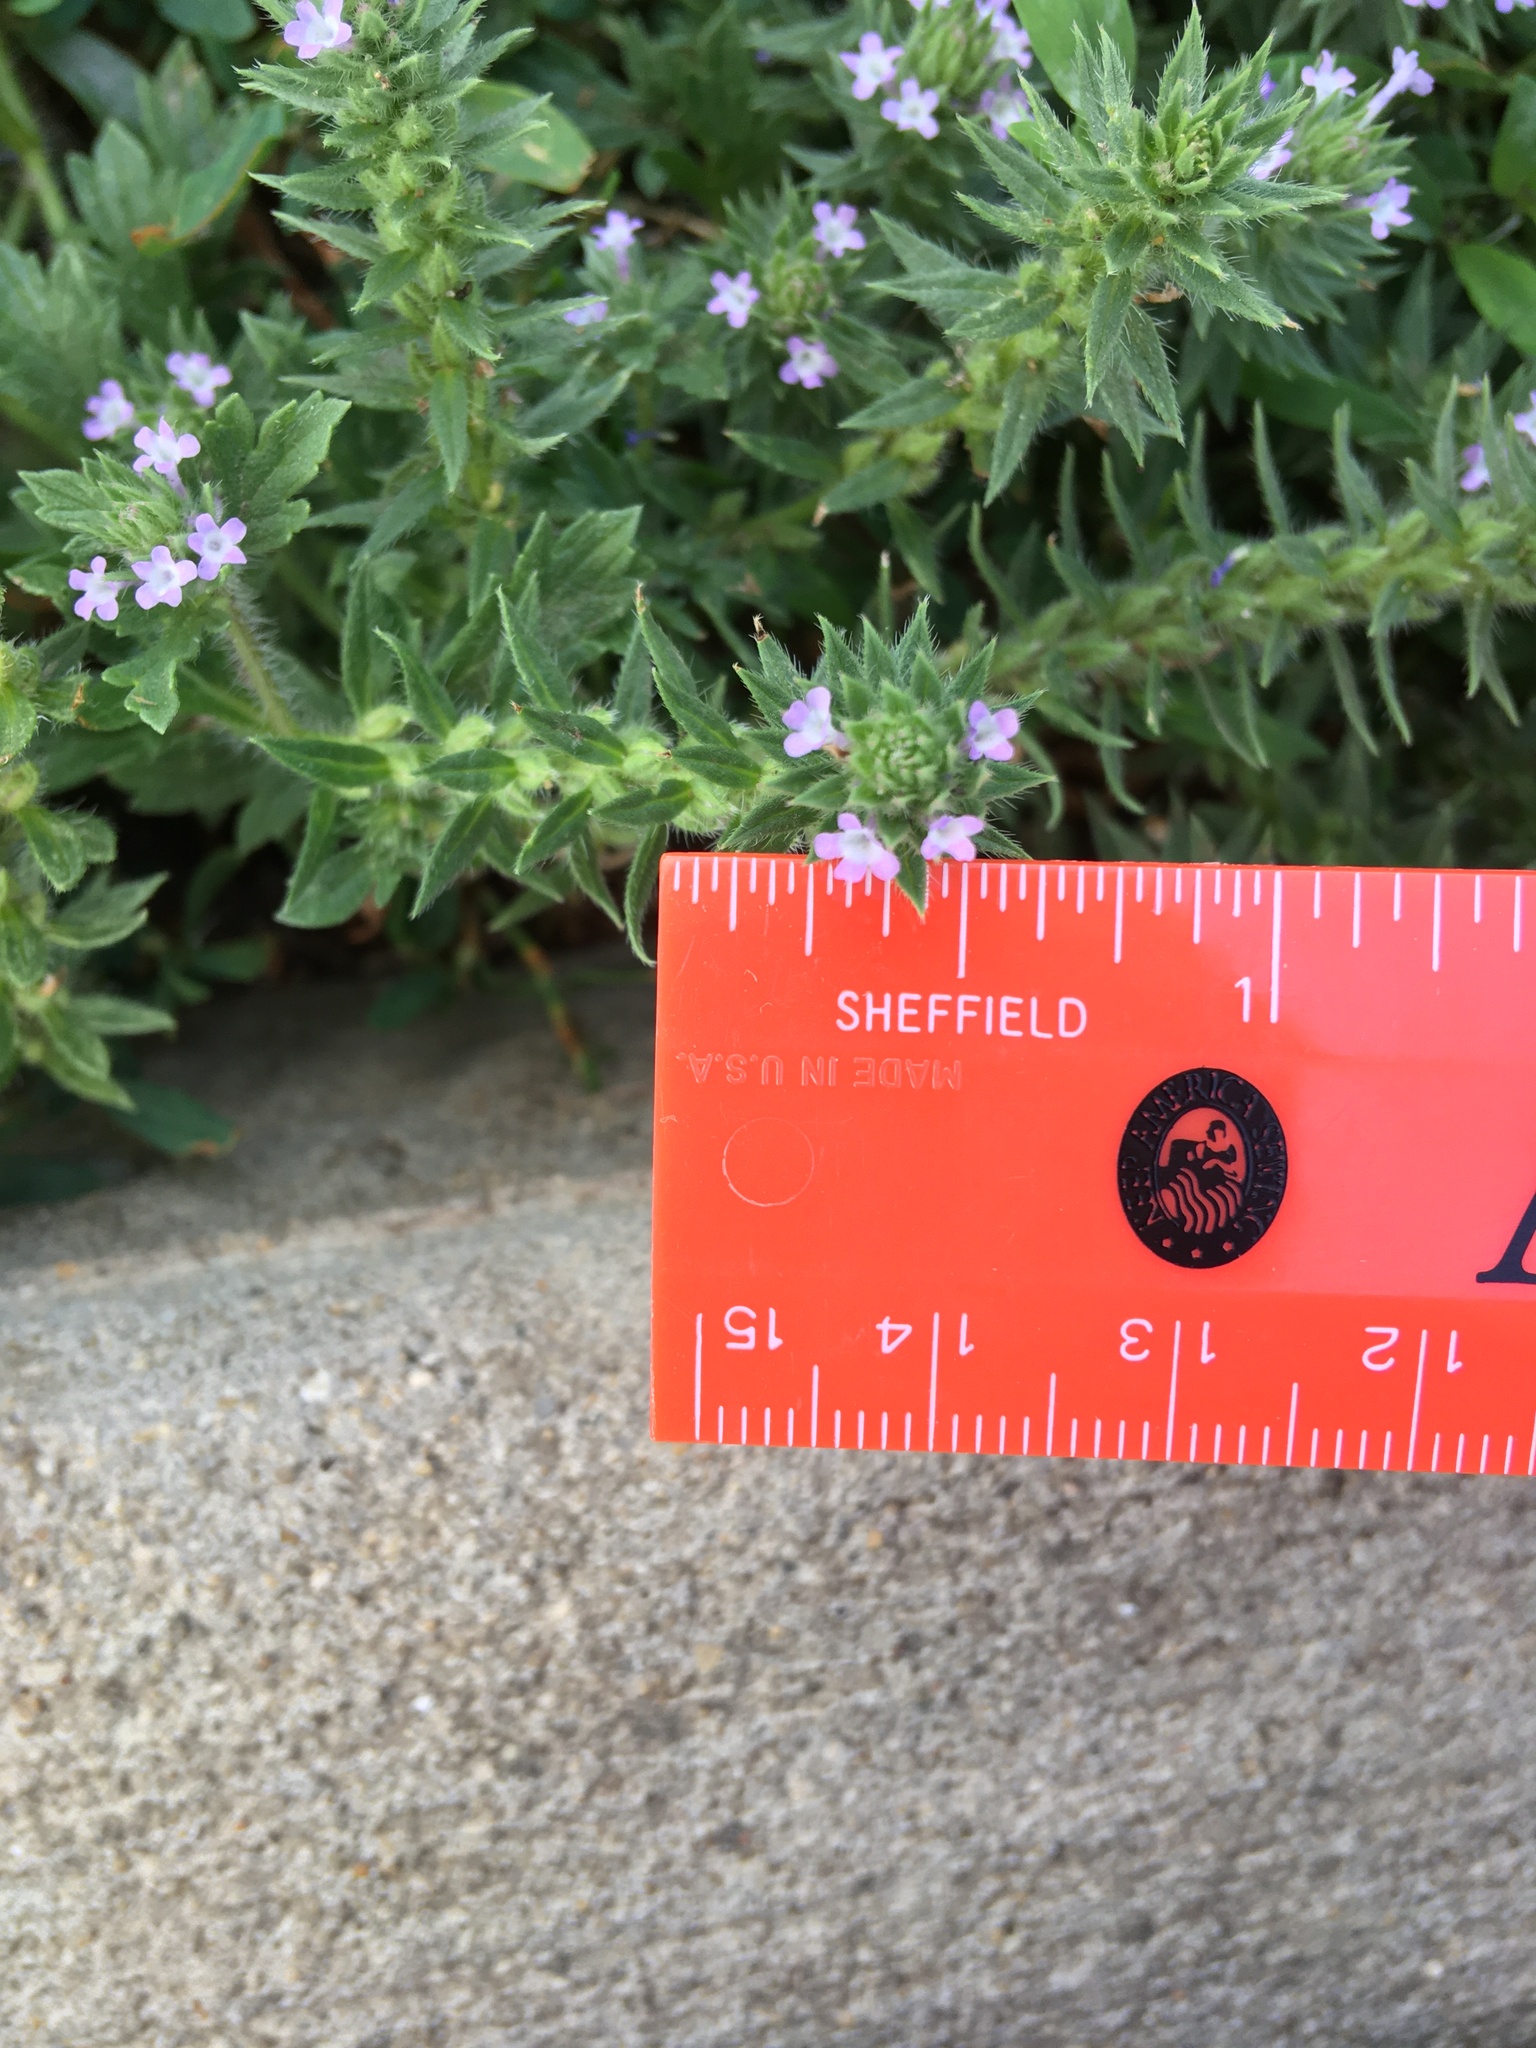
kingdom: Plantae
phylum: Tracheophyta
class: Magnoliopsida
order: Lamiales
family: Verbenaceae
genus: Verbena
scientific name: Verbena bracteata
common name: Bracted vervain
